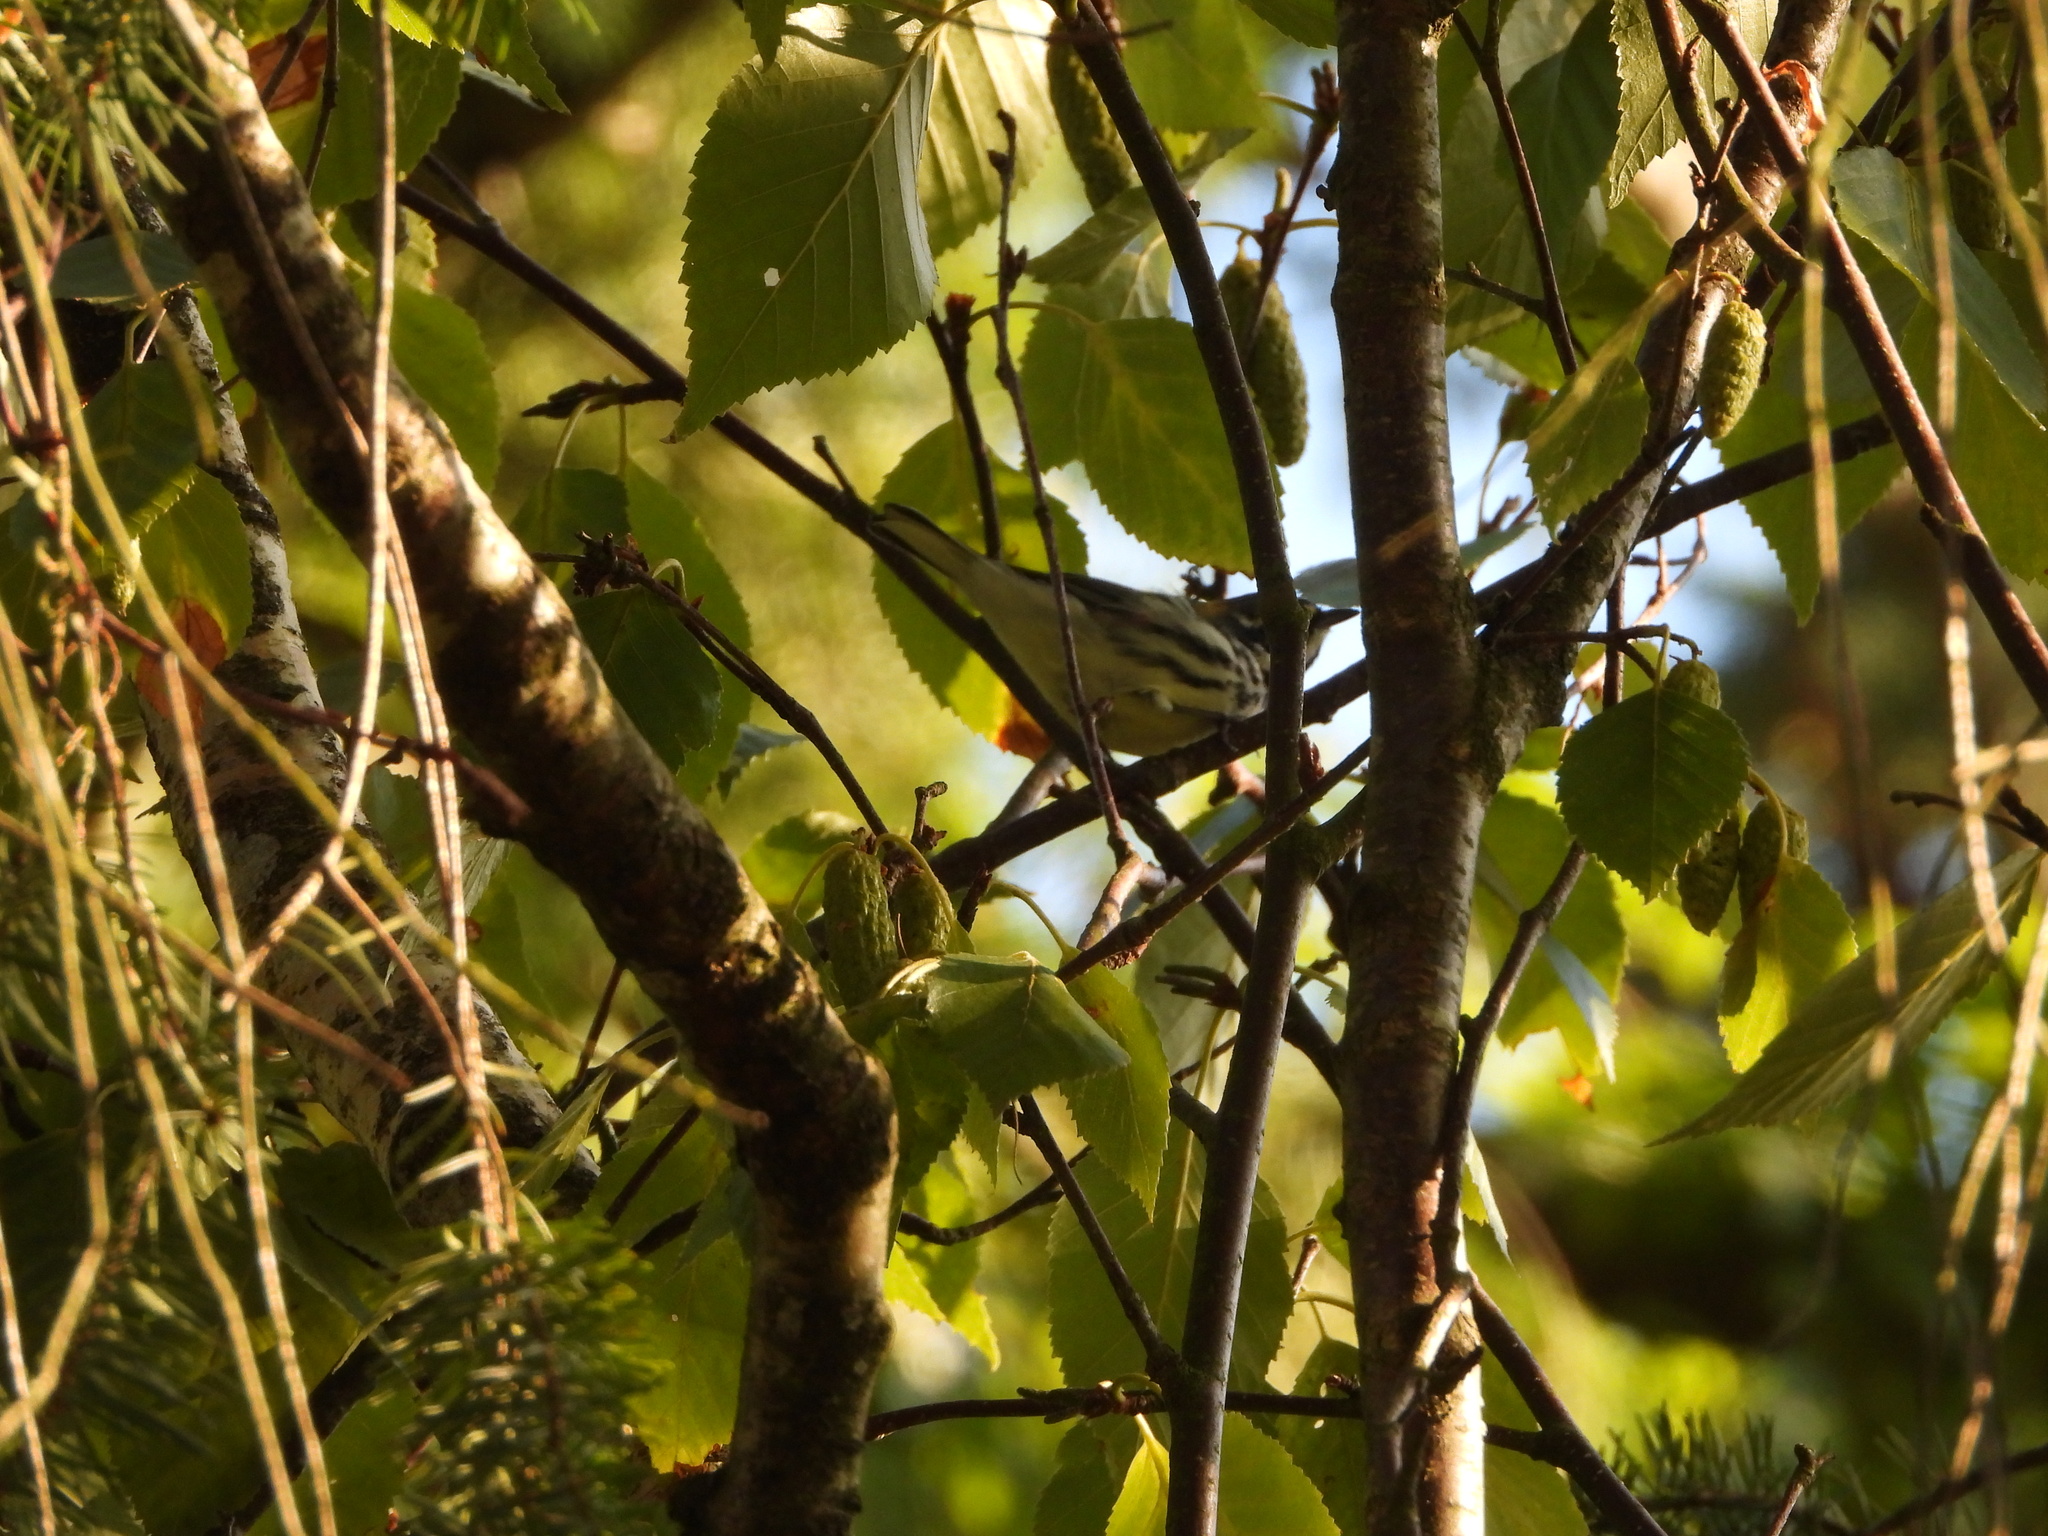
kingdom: Animalia
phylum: Chordata
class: Aves
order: Passeriformes
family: Parulidae
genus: Setophaga
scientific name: Setophaga nigrescens
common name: Black-throated gray warbler
